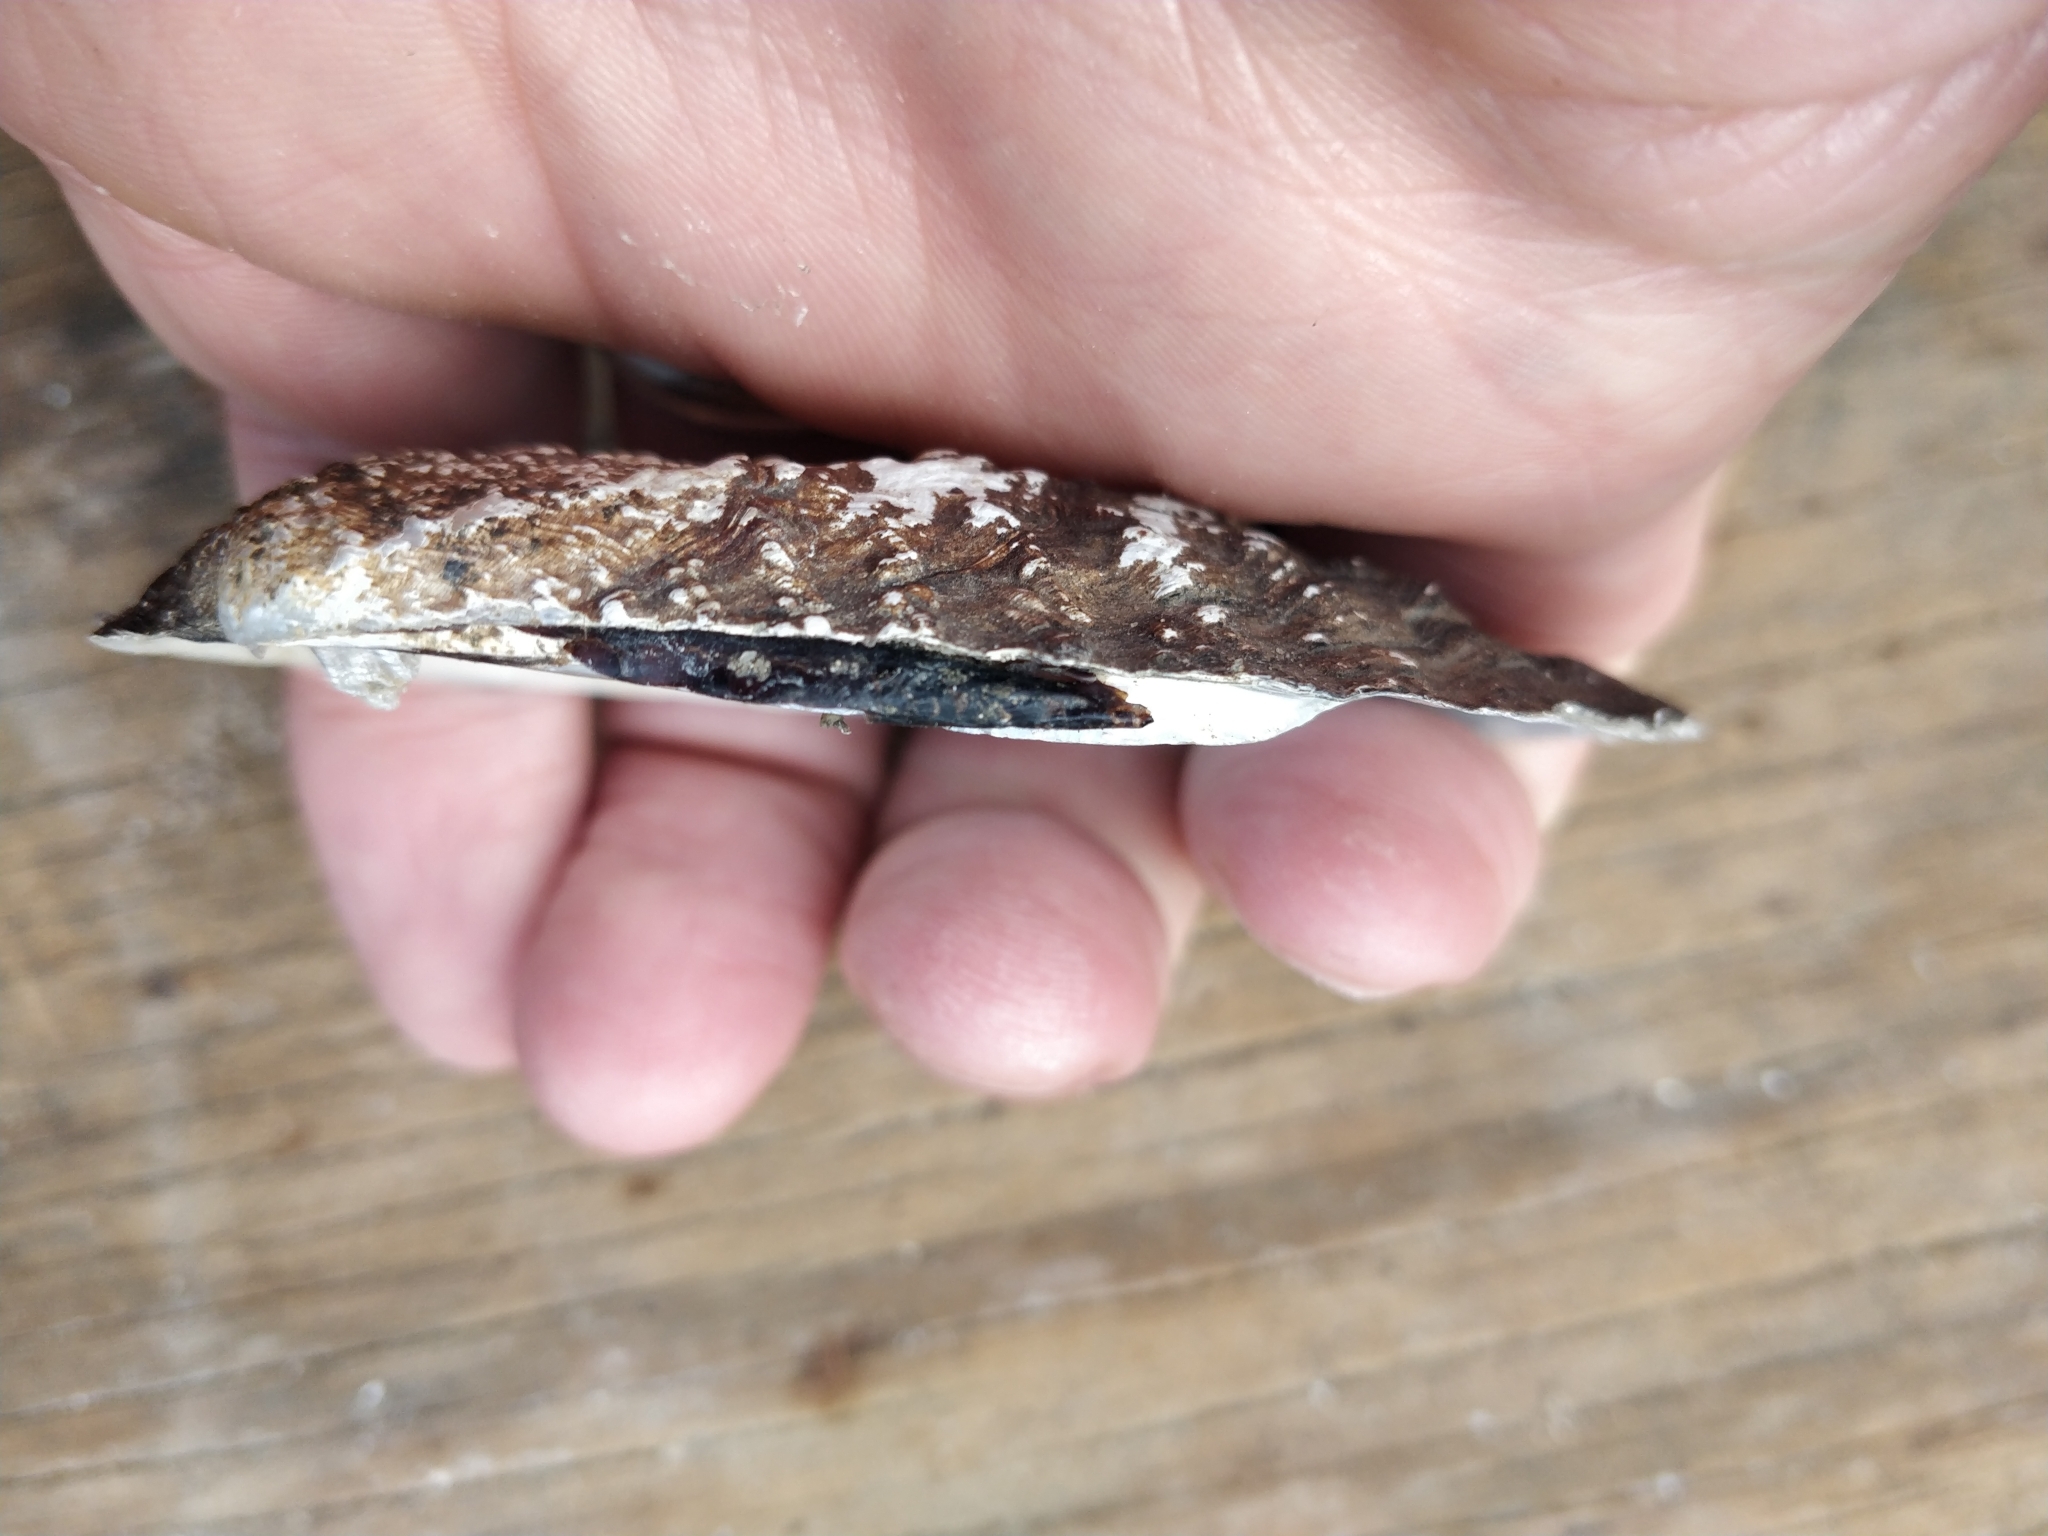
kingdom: Animalia
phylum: Mollusca
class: Bivalvia
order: Unionida
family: Unionidae
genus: Tritogonia
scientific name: Tritogonia verrucosa
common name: Pistolgrip
